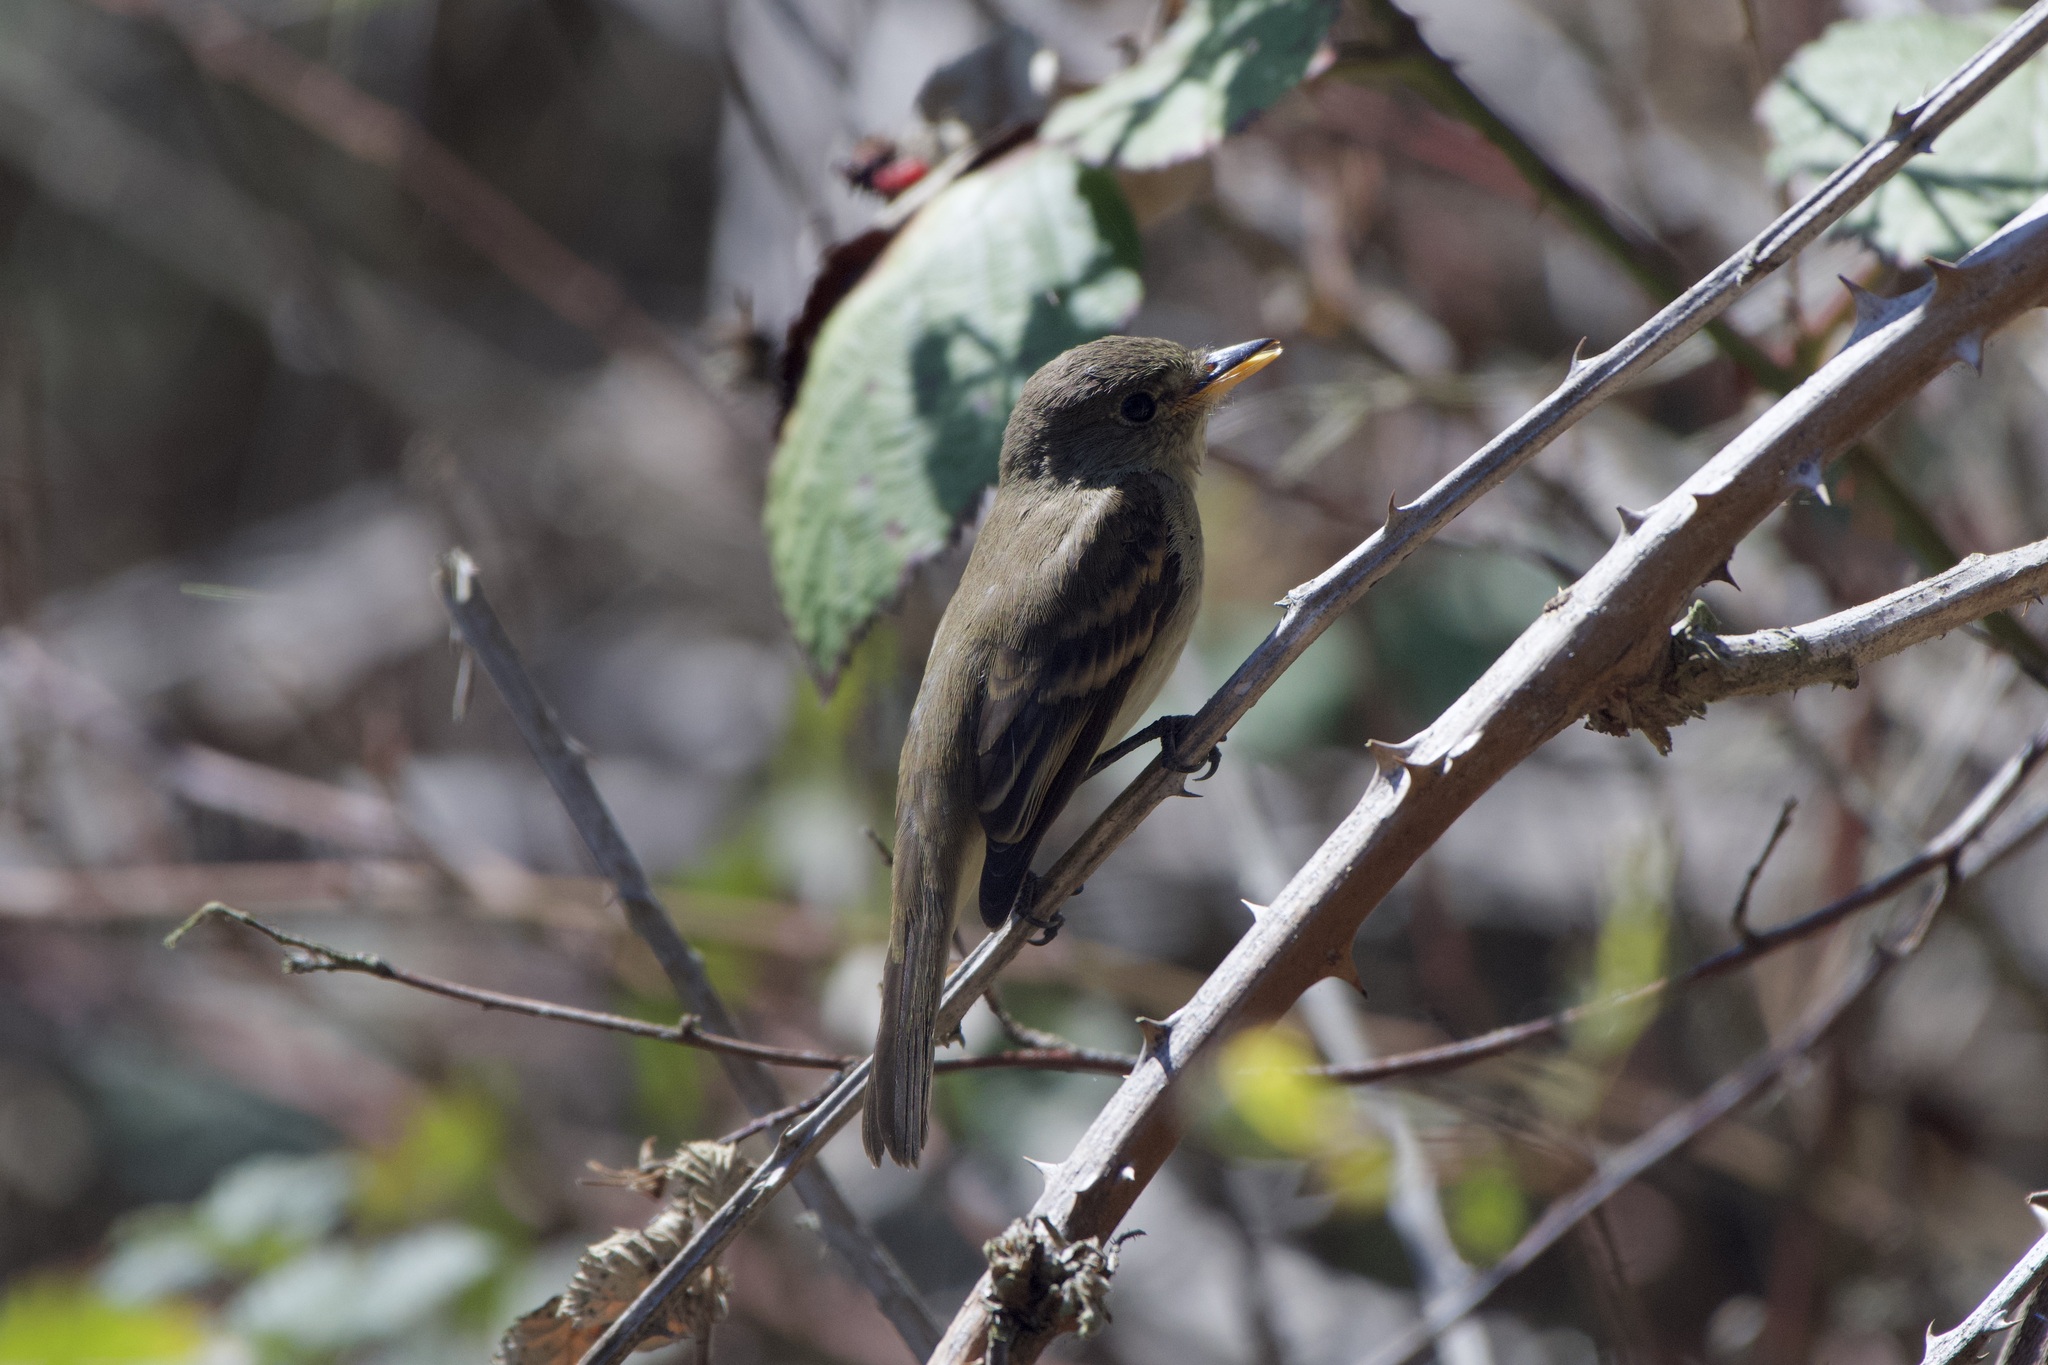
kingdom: Animalia
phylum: Chordata
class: Aves
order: Passeriformes
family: Tyrannidae
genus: Empidonax
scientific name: Empidonax traillii
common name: Willow flycatcher
